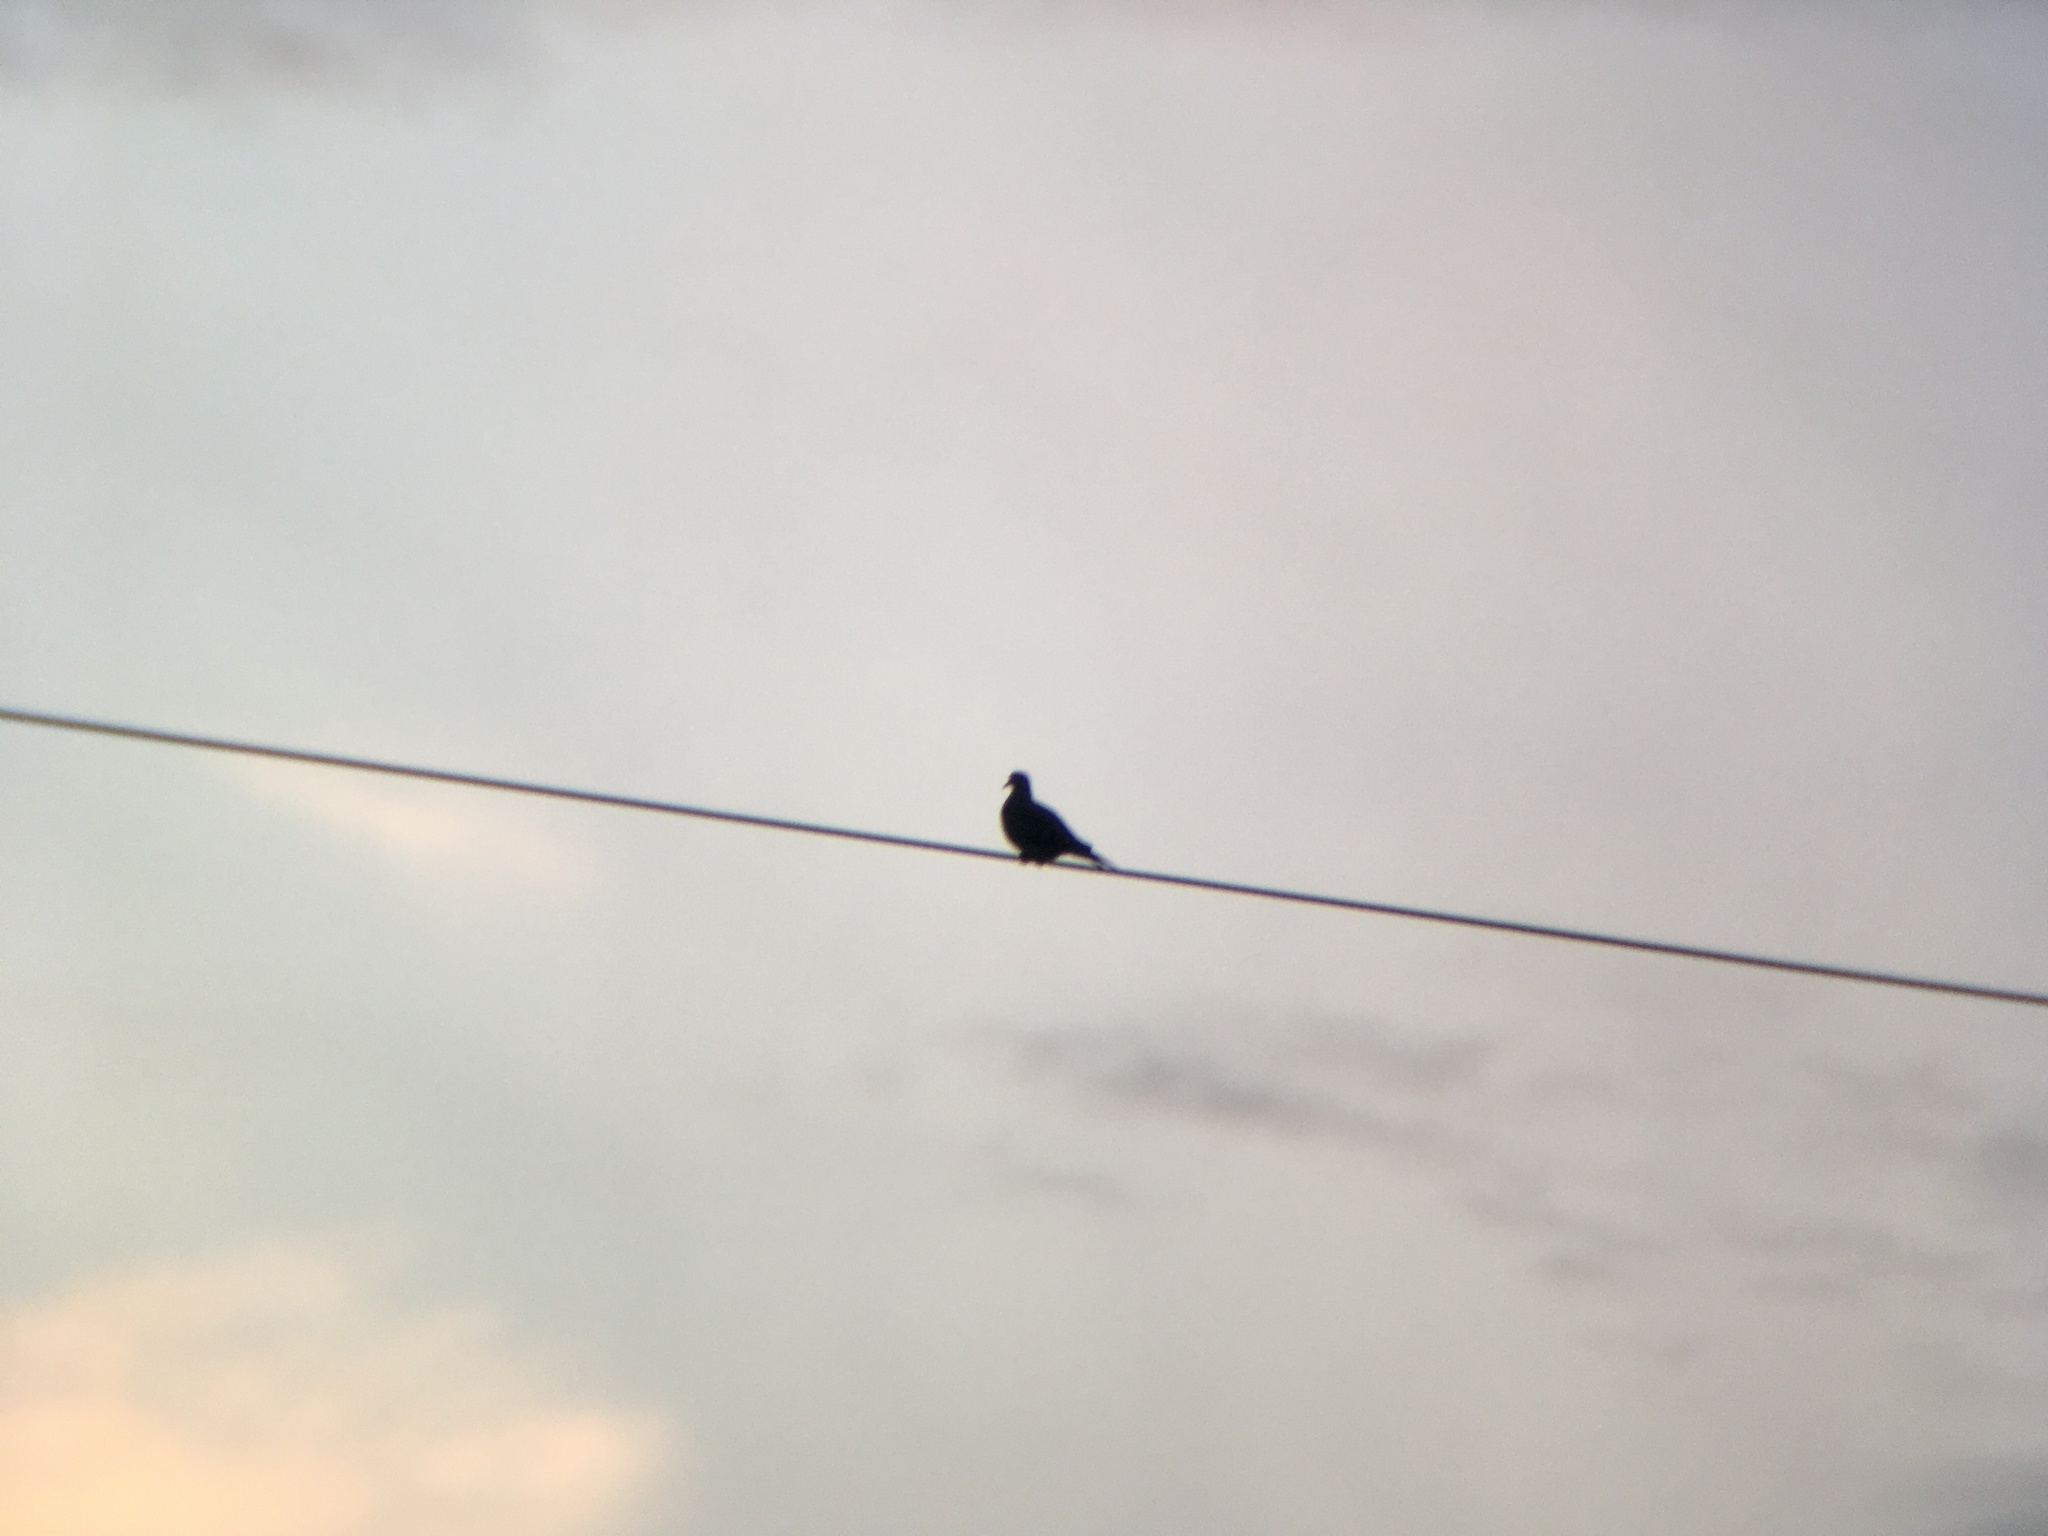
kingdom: Animalia
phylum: Chordata
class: Aves
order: Columbiformes
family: Columbidae
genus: Zenaida
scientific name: Zenaida macroura
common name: Mourning dove
